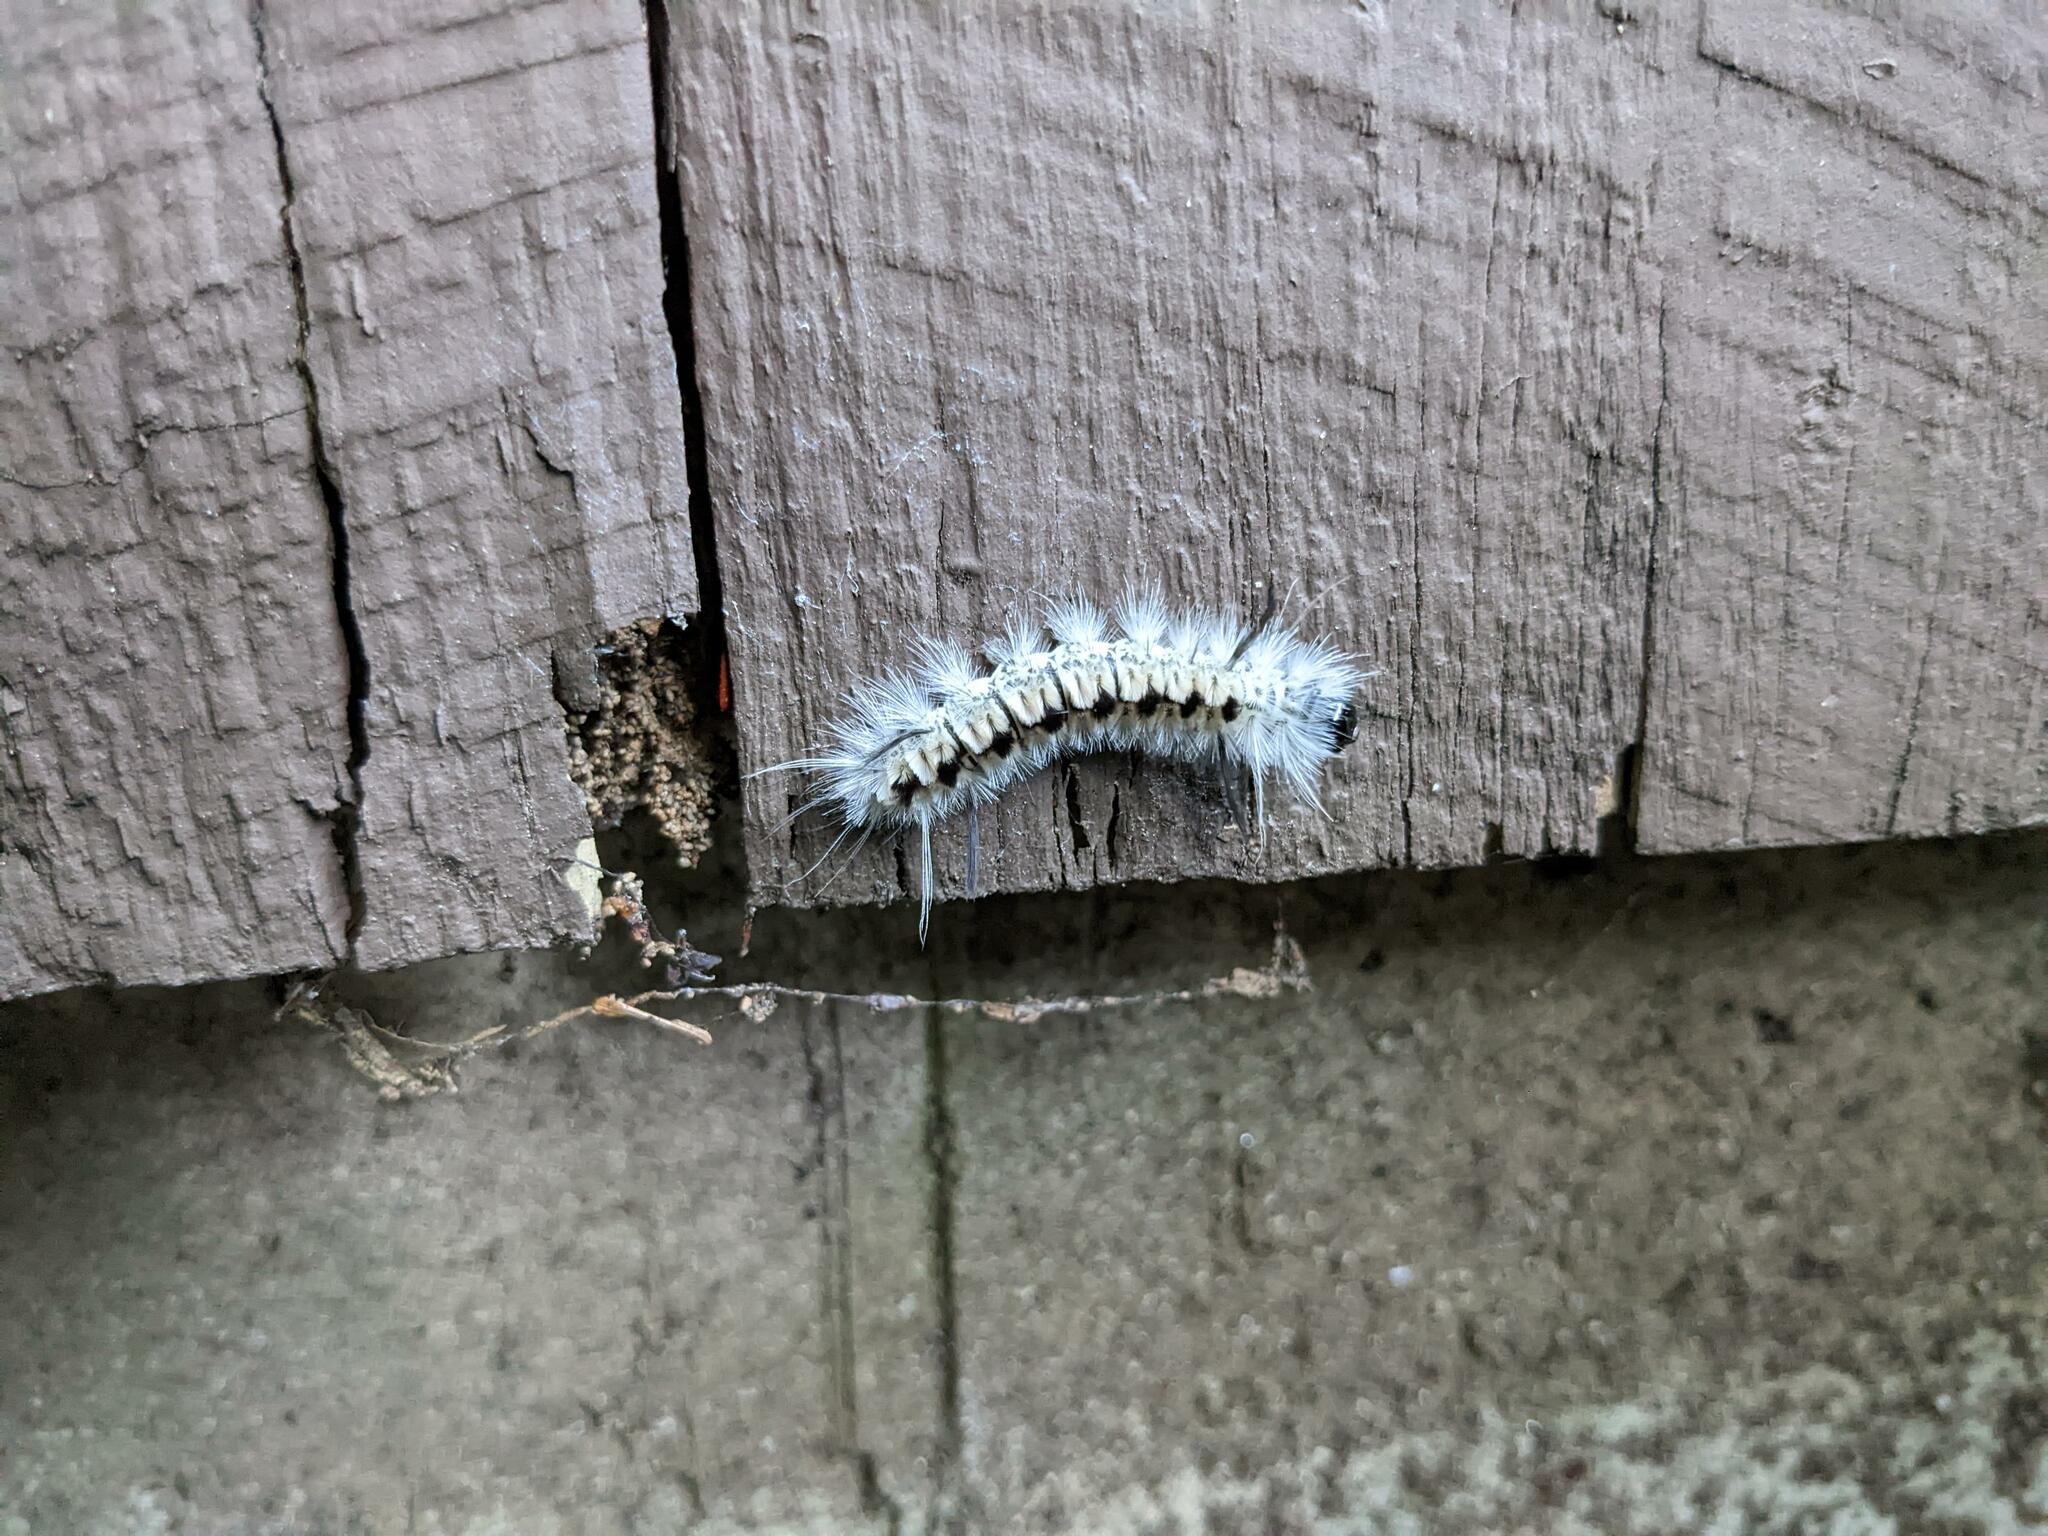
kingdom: Animalia
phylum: Arthropoda
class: Insecta
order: Lepidoptera
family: Erebidae
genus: Lophocampa
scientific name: Lophocampa caryae
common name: Hickory tussock moth
